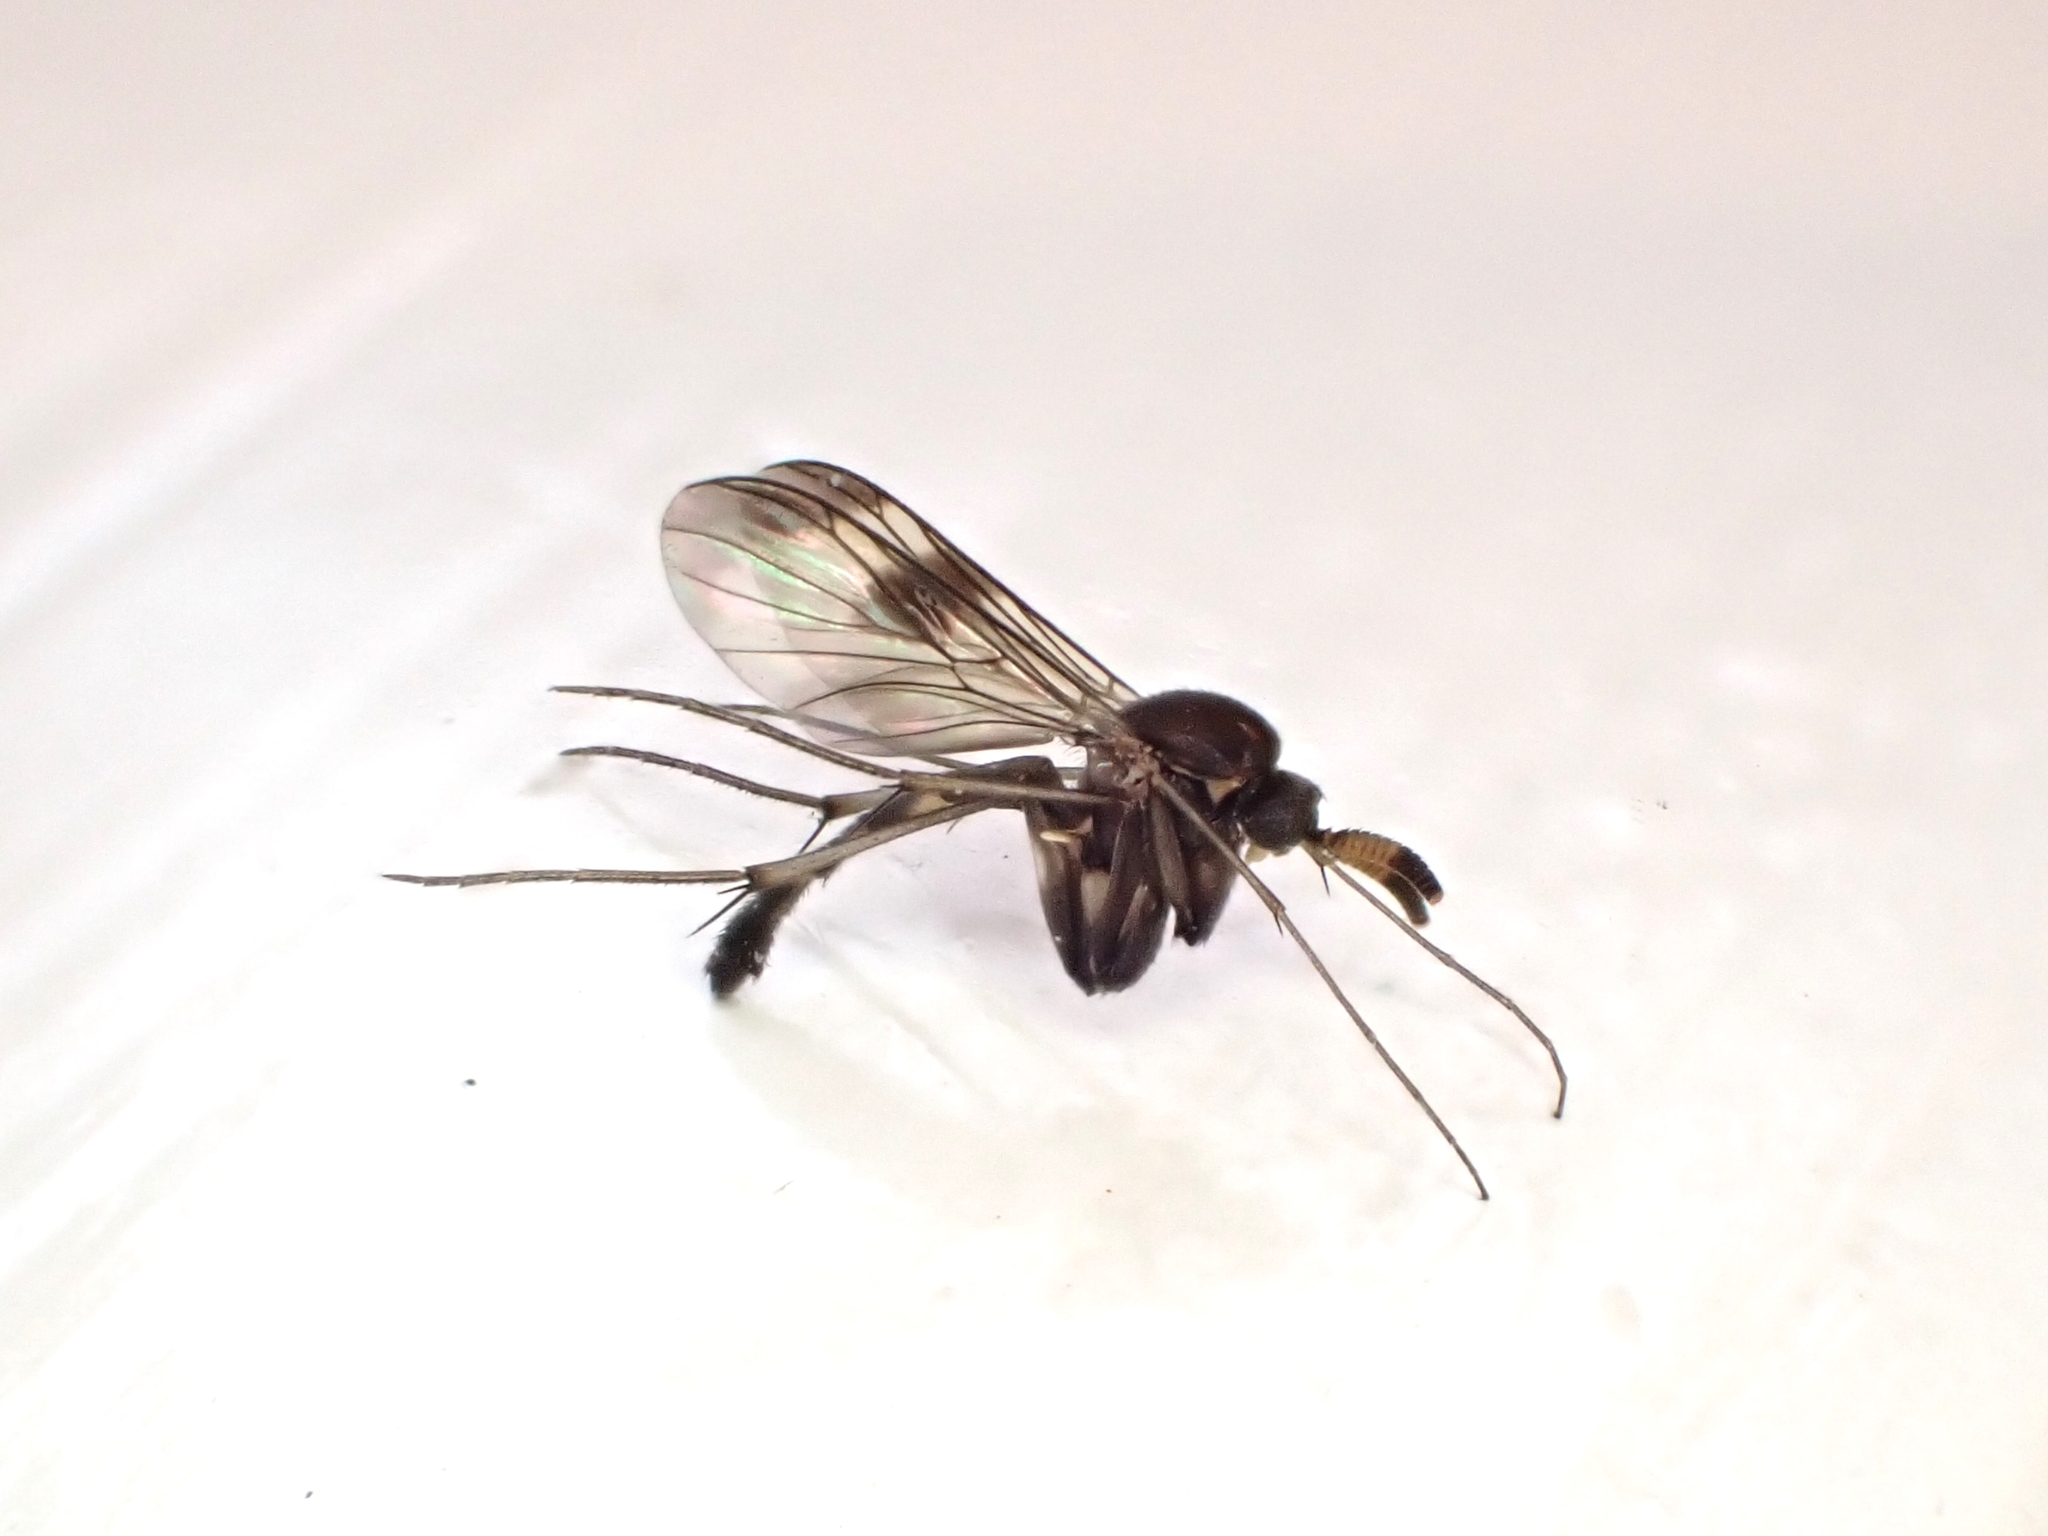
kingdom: Animalia
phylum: Arthropoda
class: Insecta
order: Diptera
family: Keroplatidae
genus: Cerotelion
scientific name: Cerotelion leucoceras
